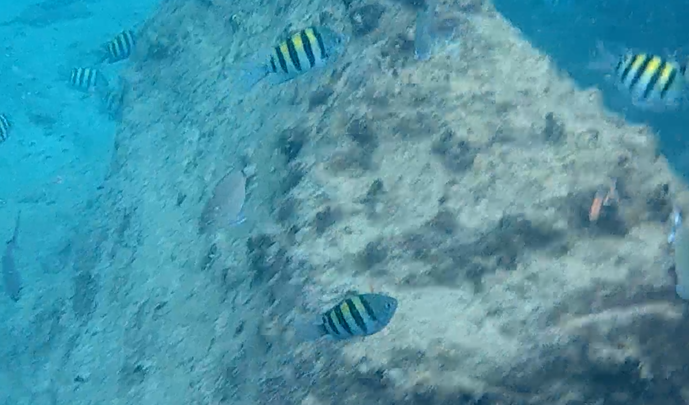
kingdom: Animalia
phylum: Chordata
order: Perciformes
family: Pomacentridae
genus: Abudefduf
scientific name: Abudefduf saxatilis
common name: Sergeant major
